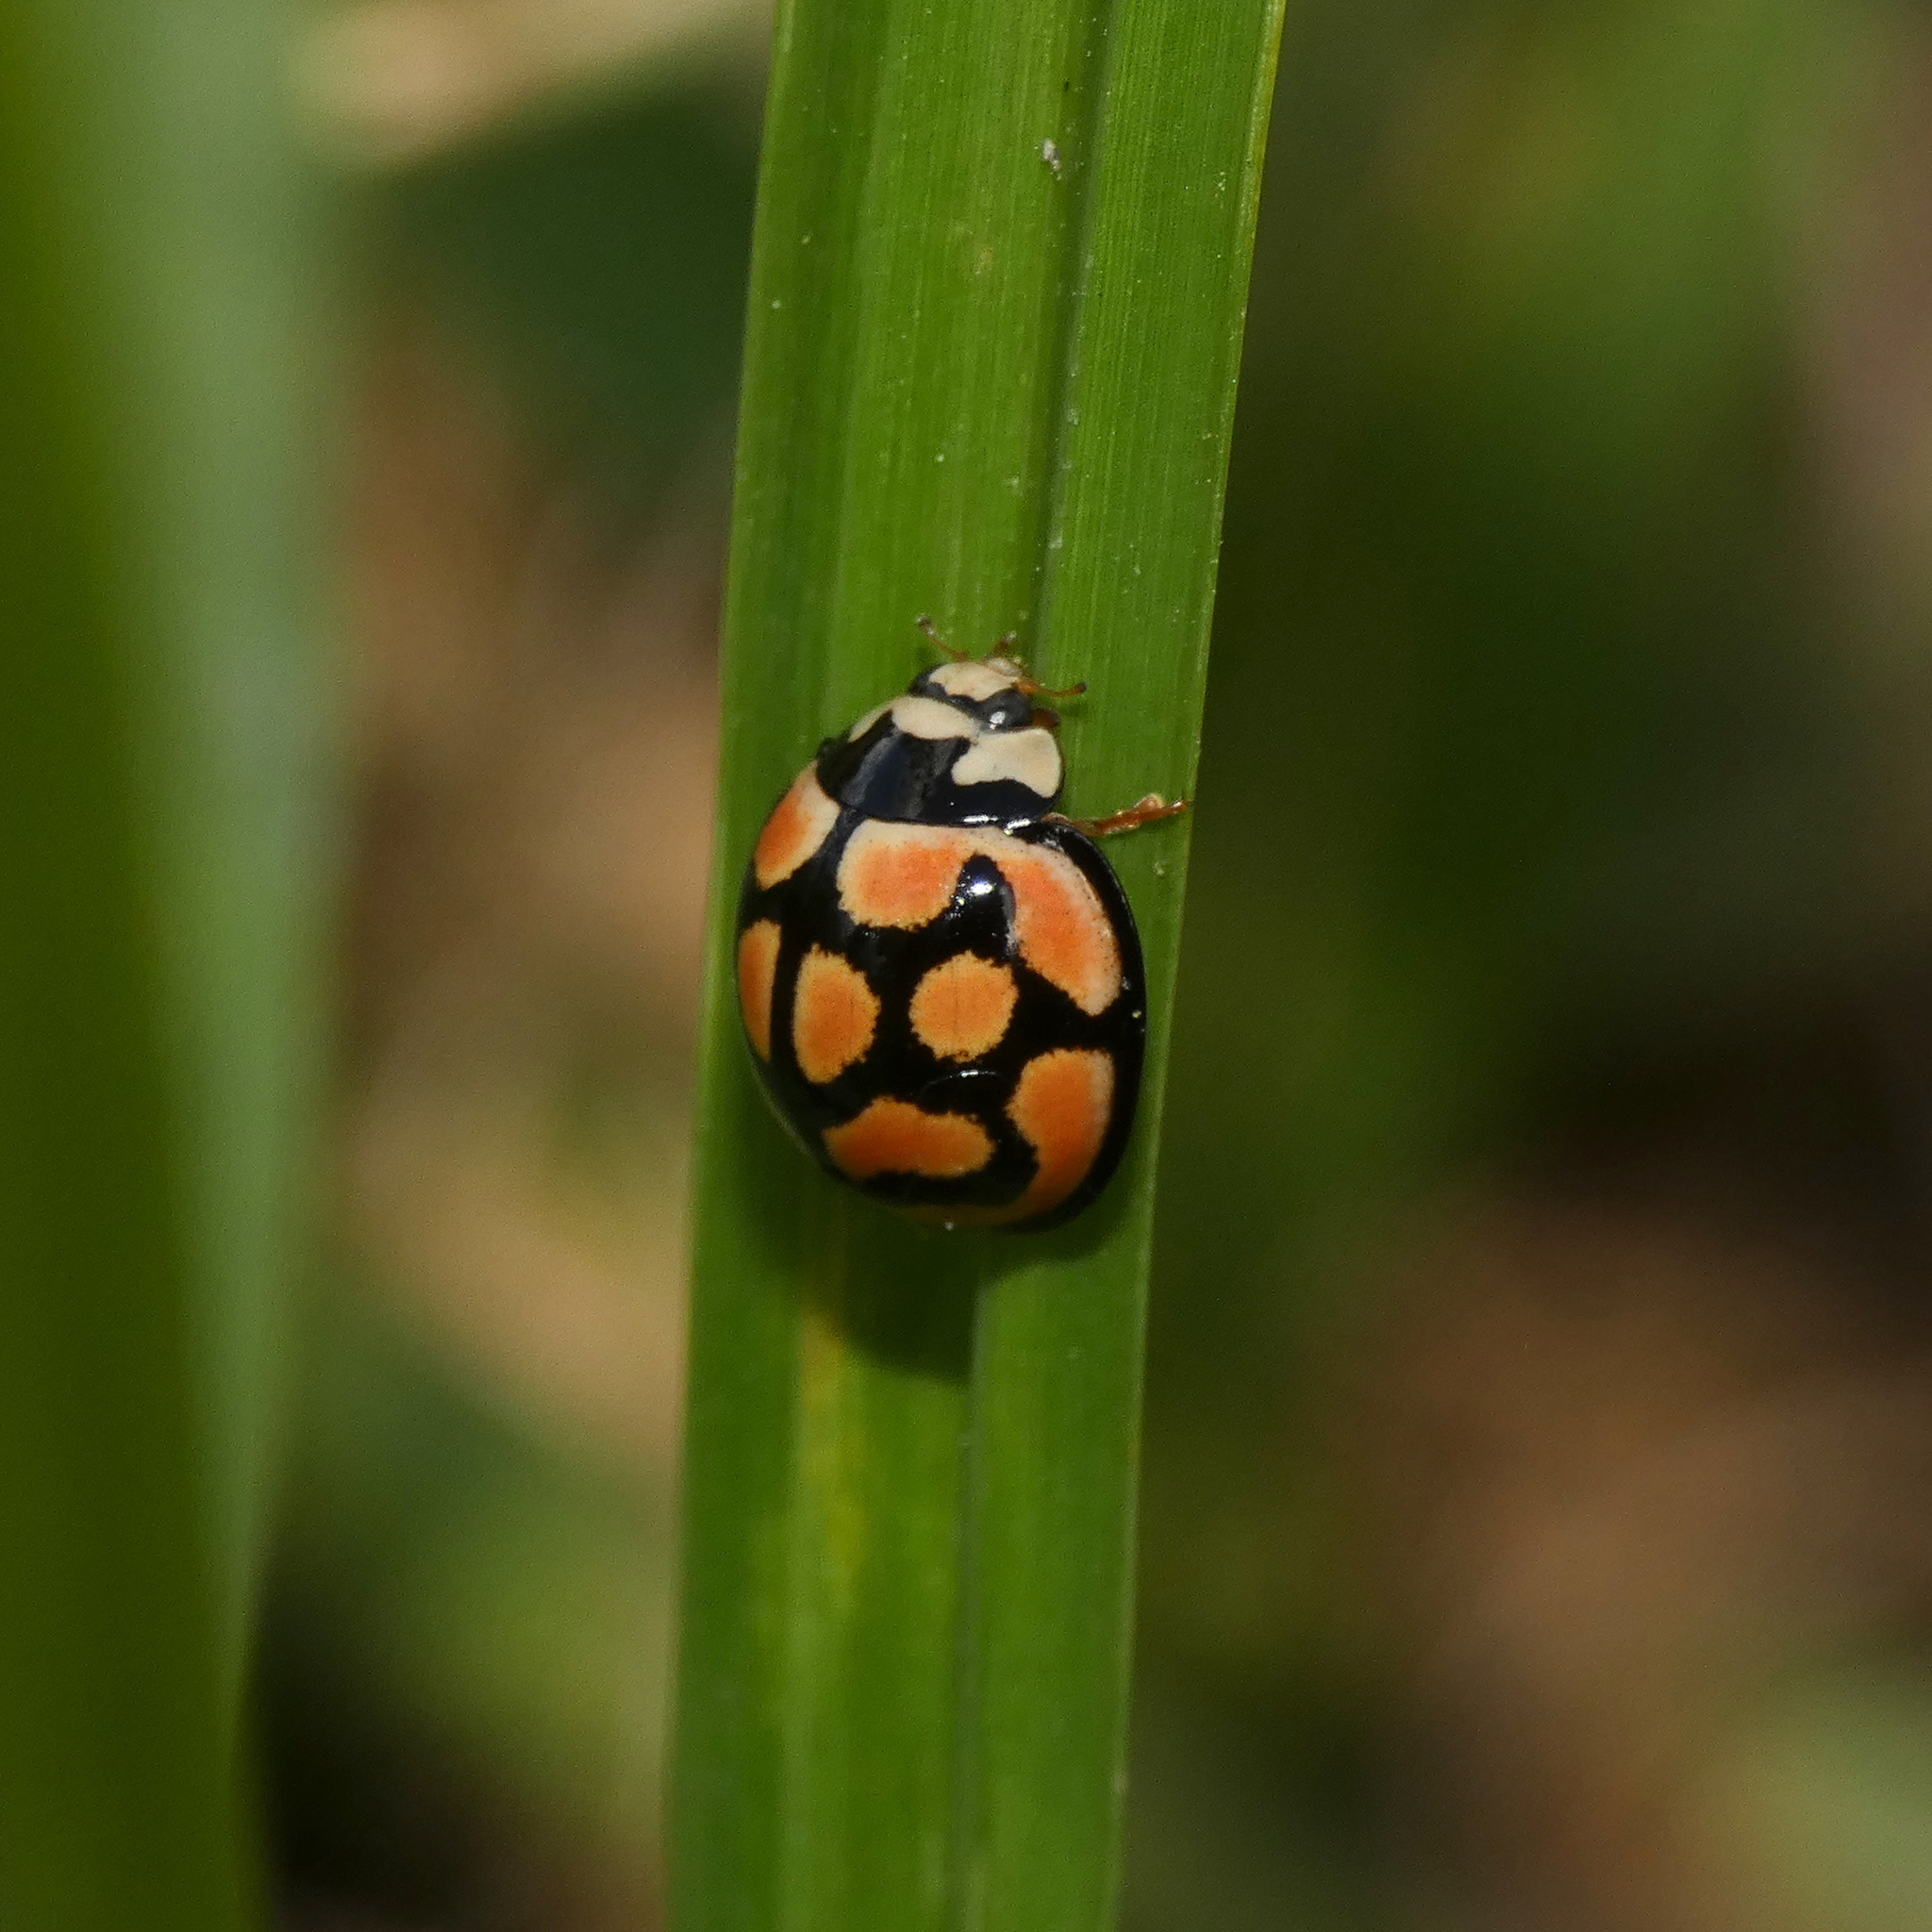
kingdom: Animalia
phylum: Arthropoda
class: Insecta
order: Coleoptera
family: Coccinellidae
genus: Cheilomenes
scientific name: Cheilomenes lunata
